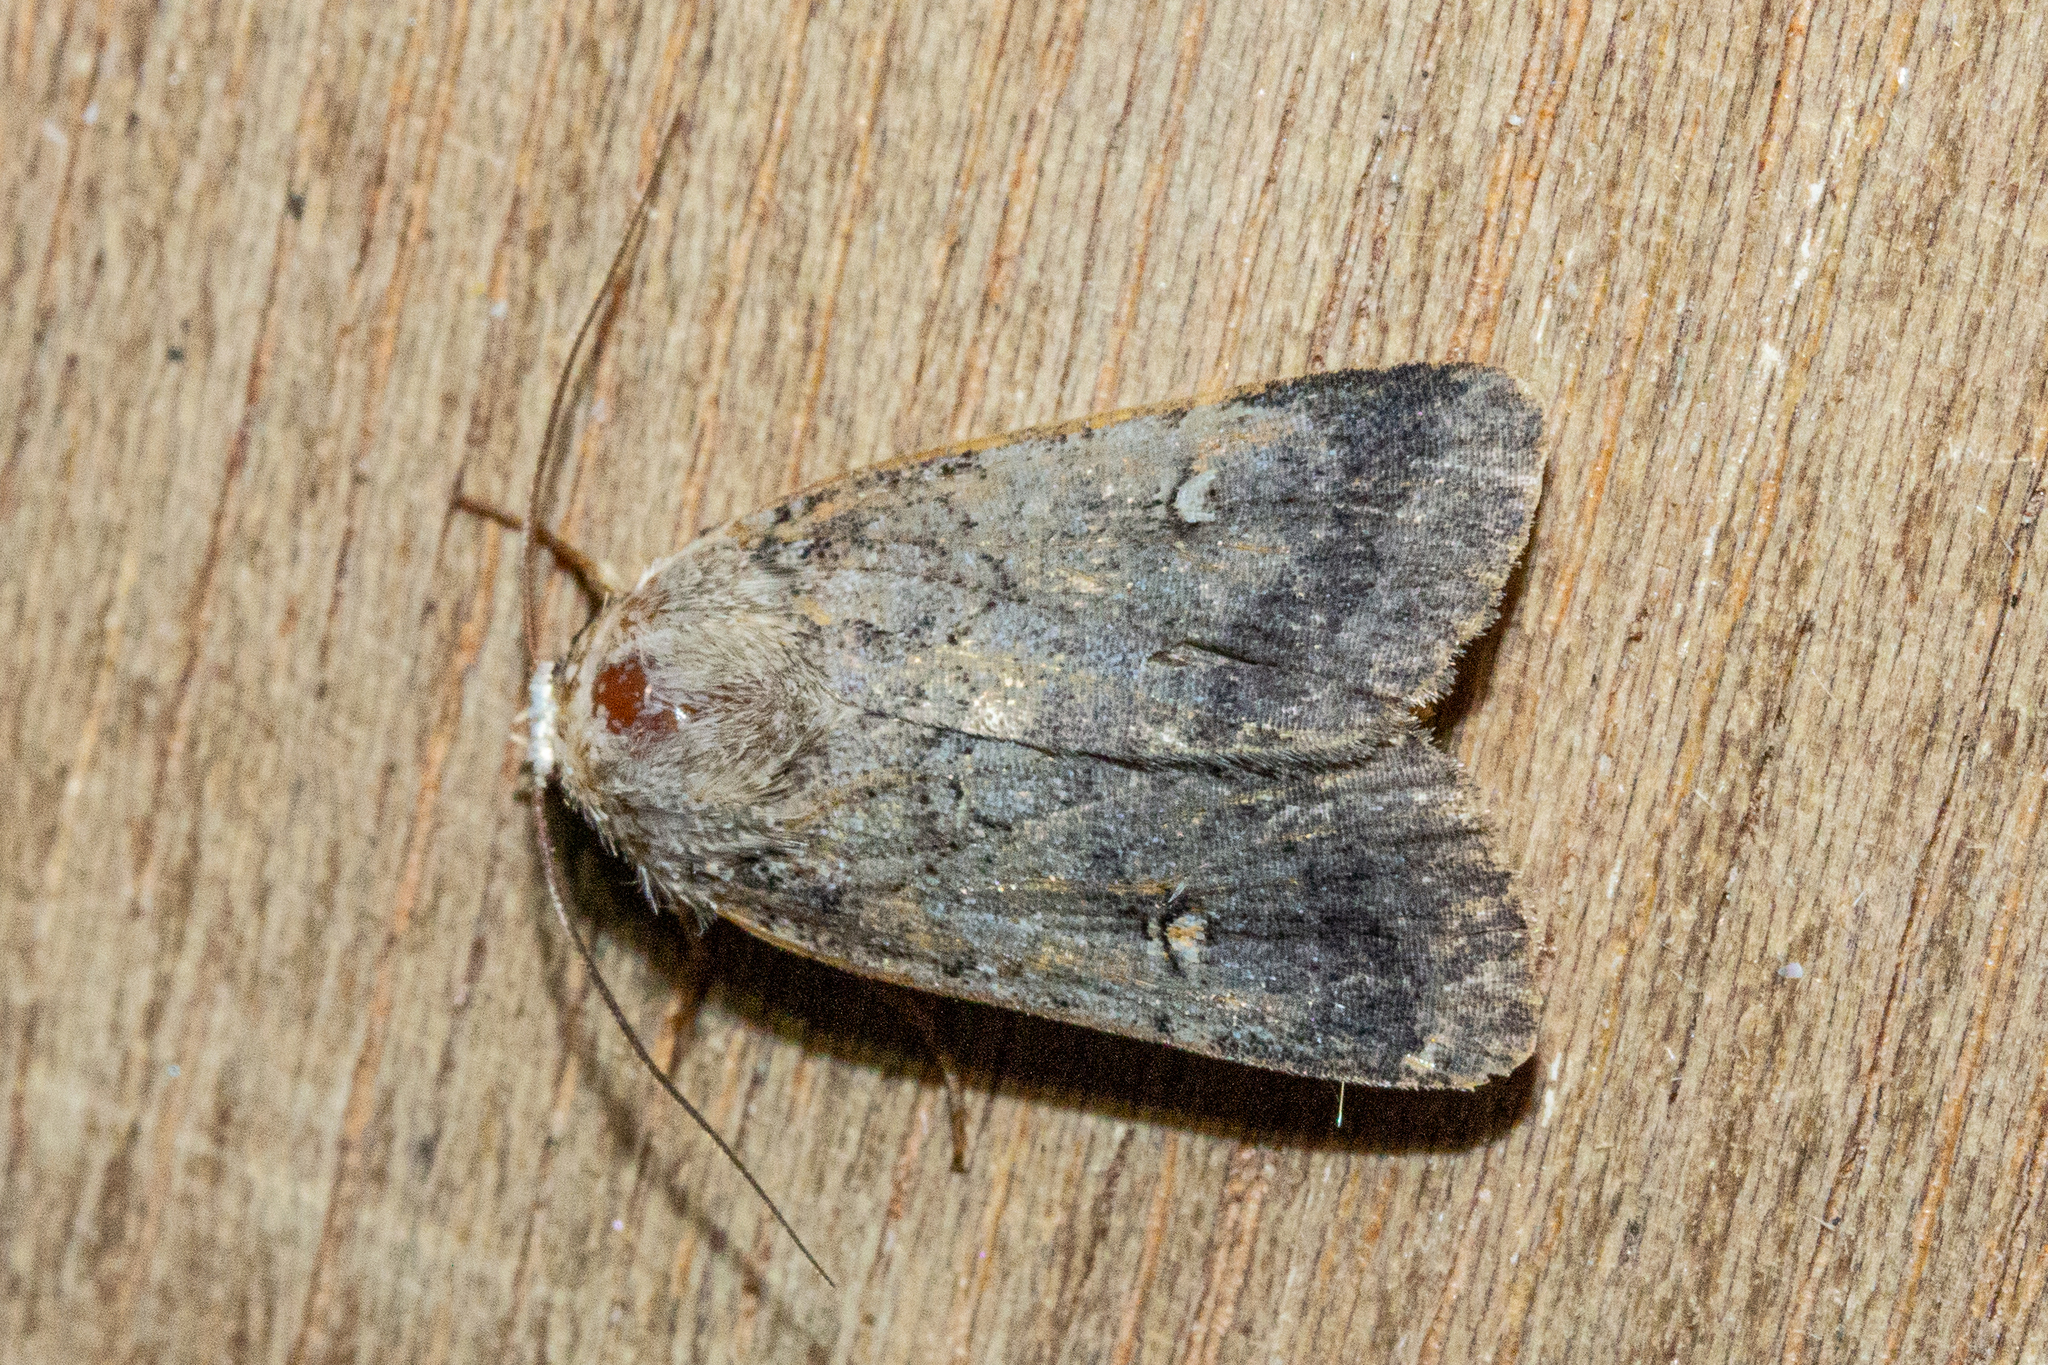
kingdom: Animalia
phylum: Arthropoda
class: Insecta
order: Lepidoptera
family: Noctuidae
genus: Proteuxoa
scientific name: Proteuxoa tetronycha
